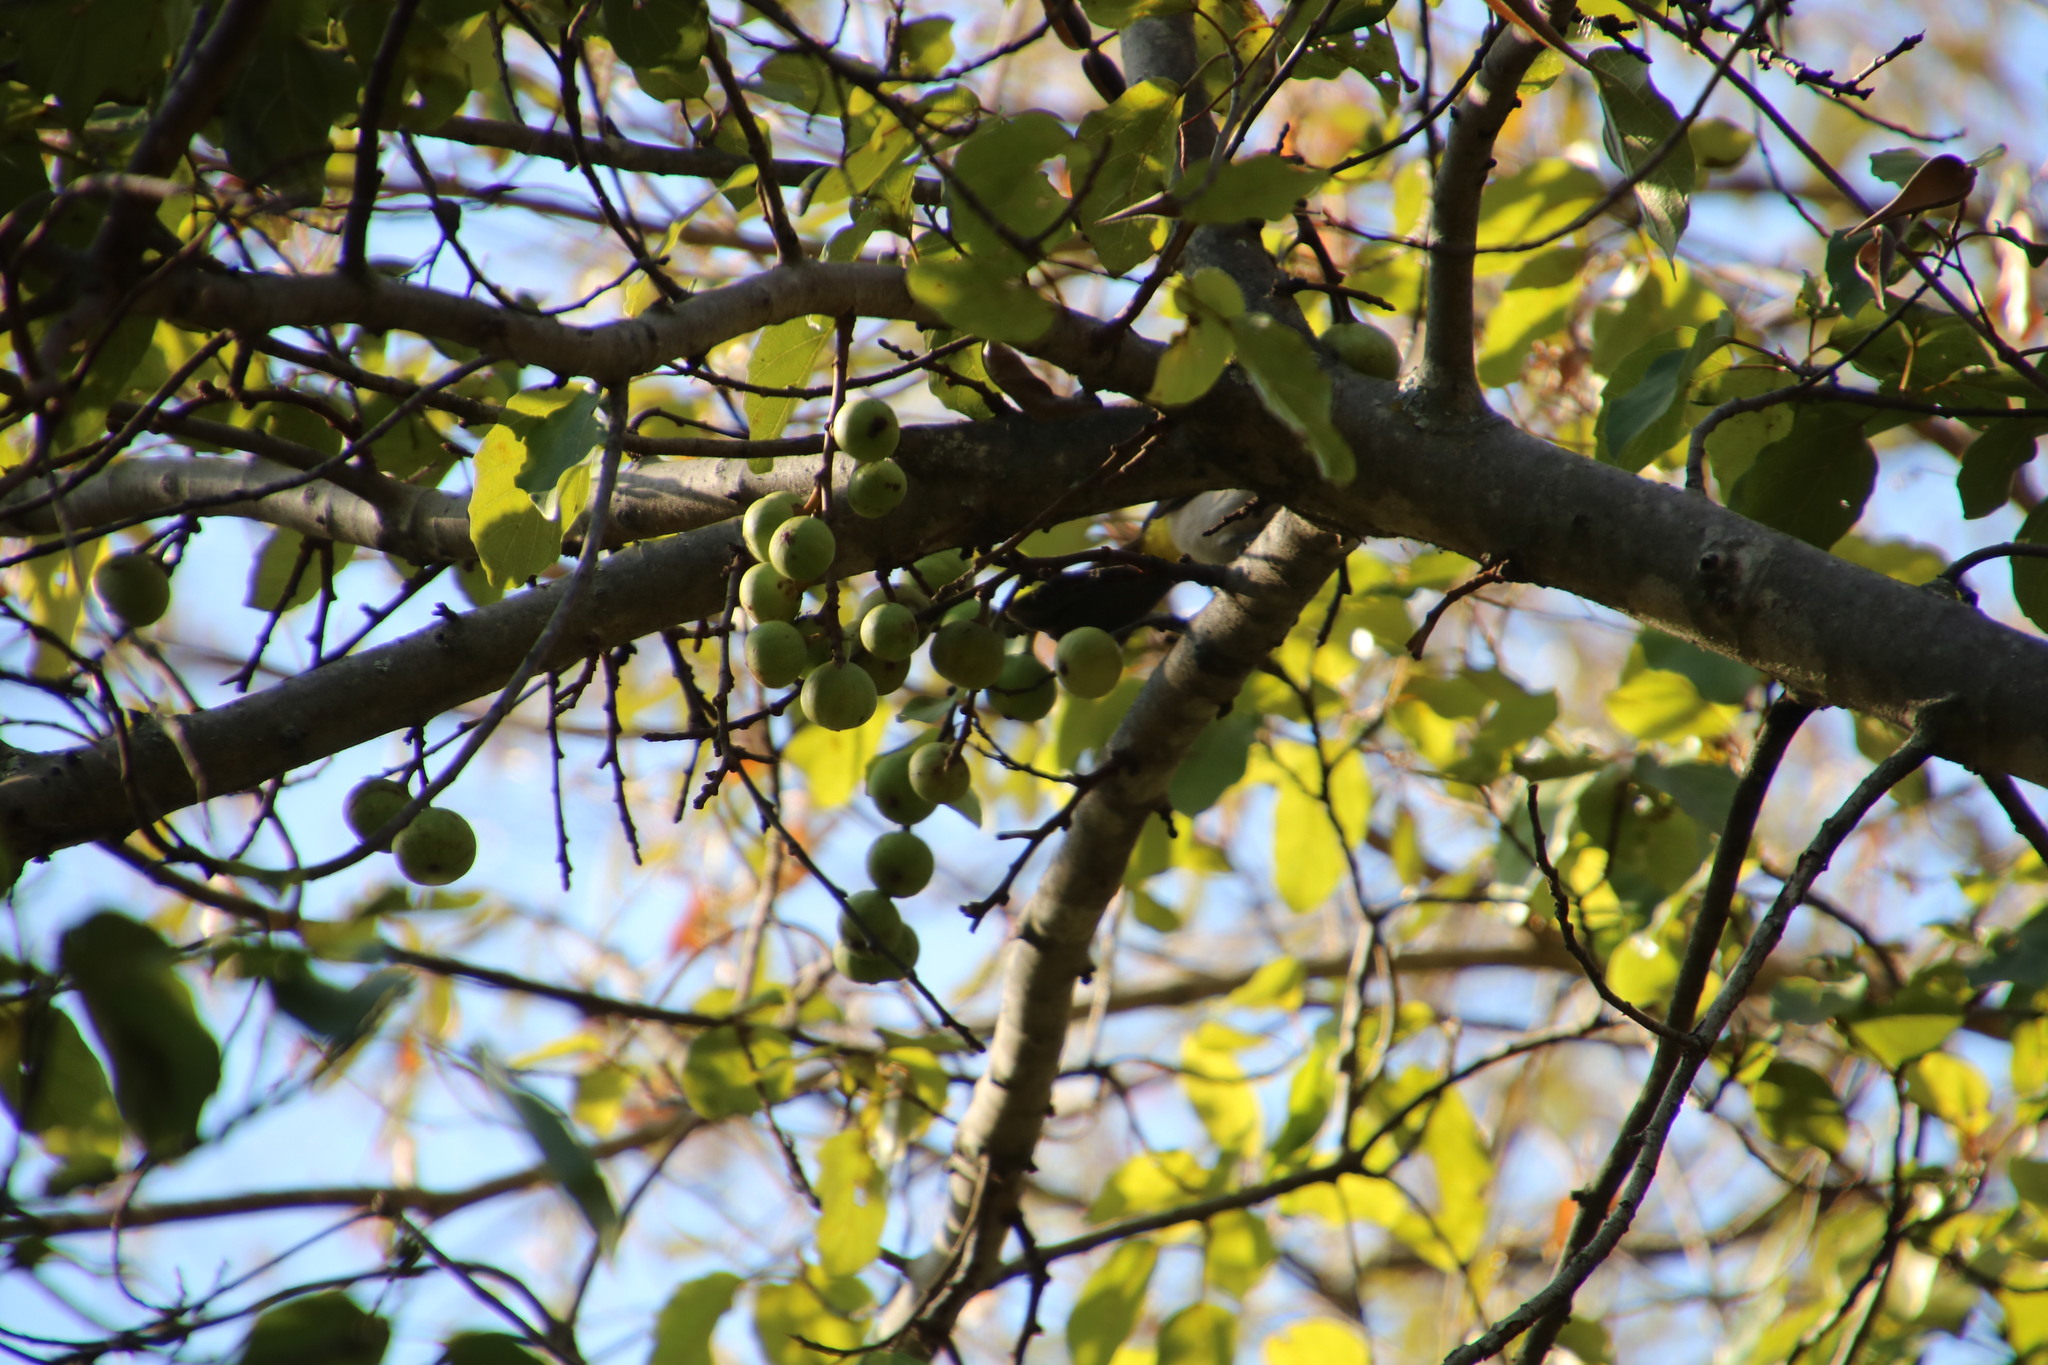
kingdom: Plantae
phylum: Tracheophyta
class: Magnoliopsida
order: Rosales
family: Moraceae
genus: Ficus
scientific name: Ficus sur
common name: Cape fig
